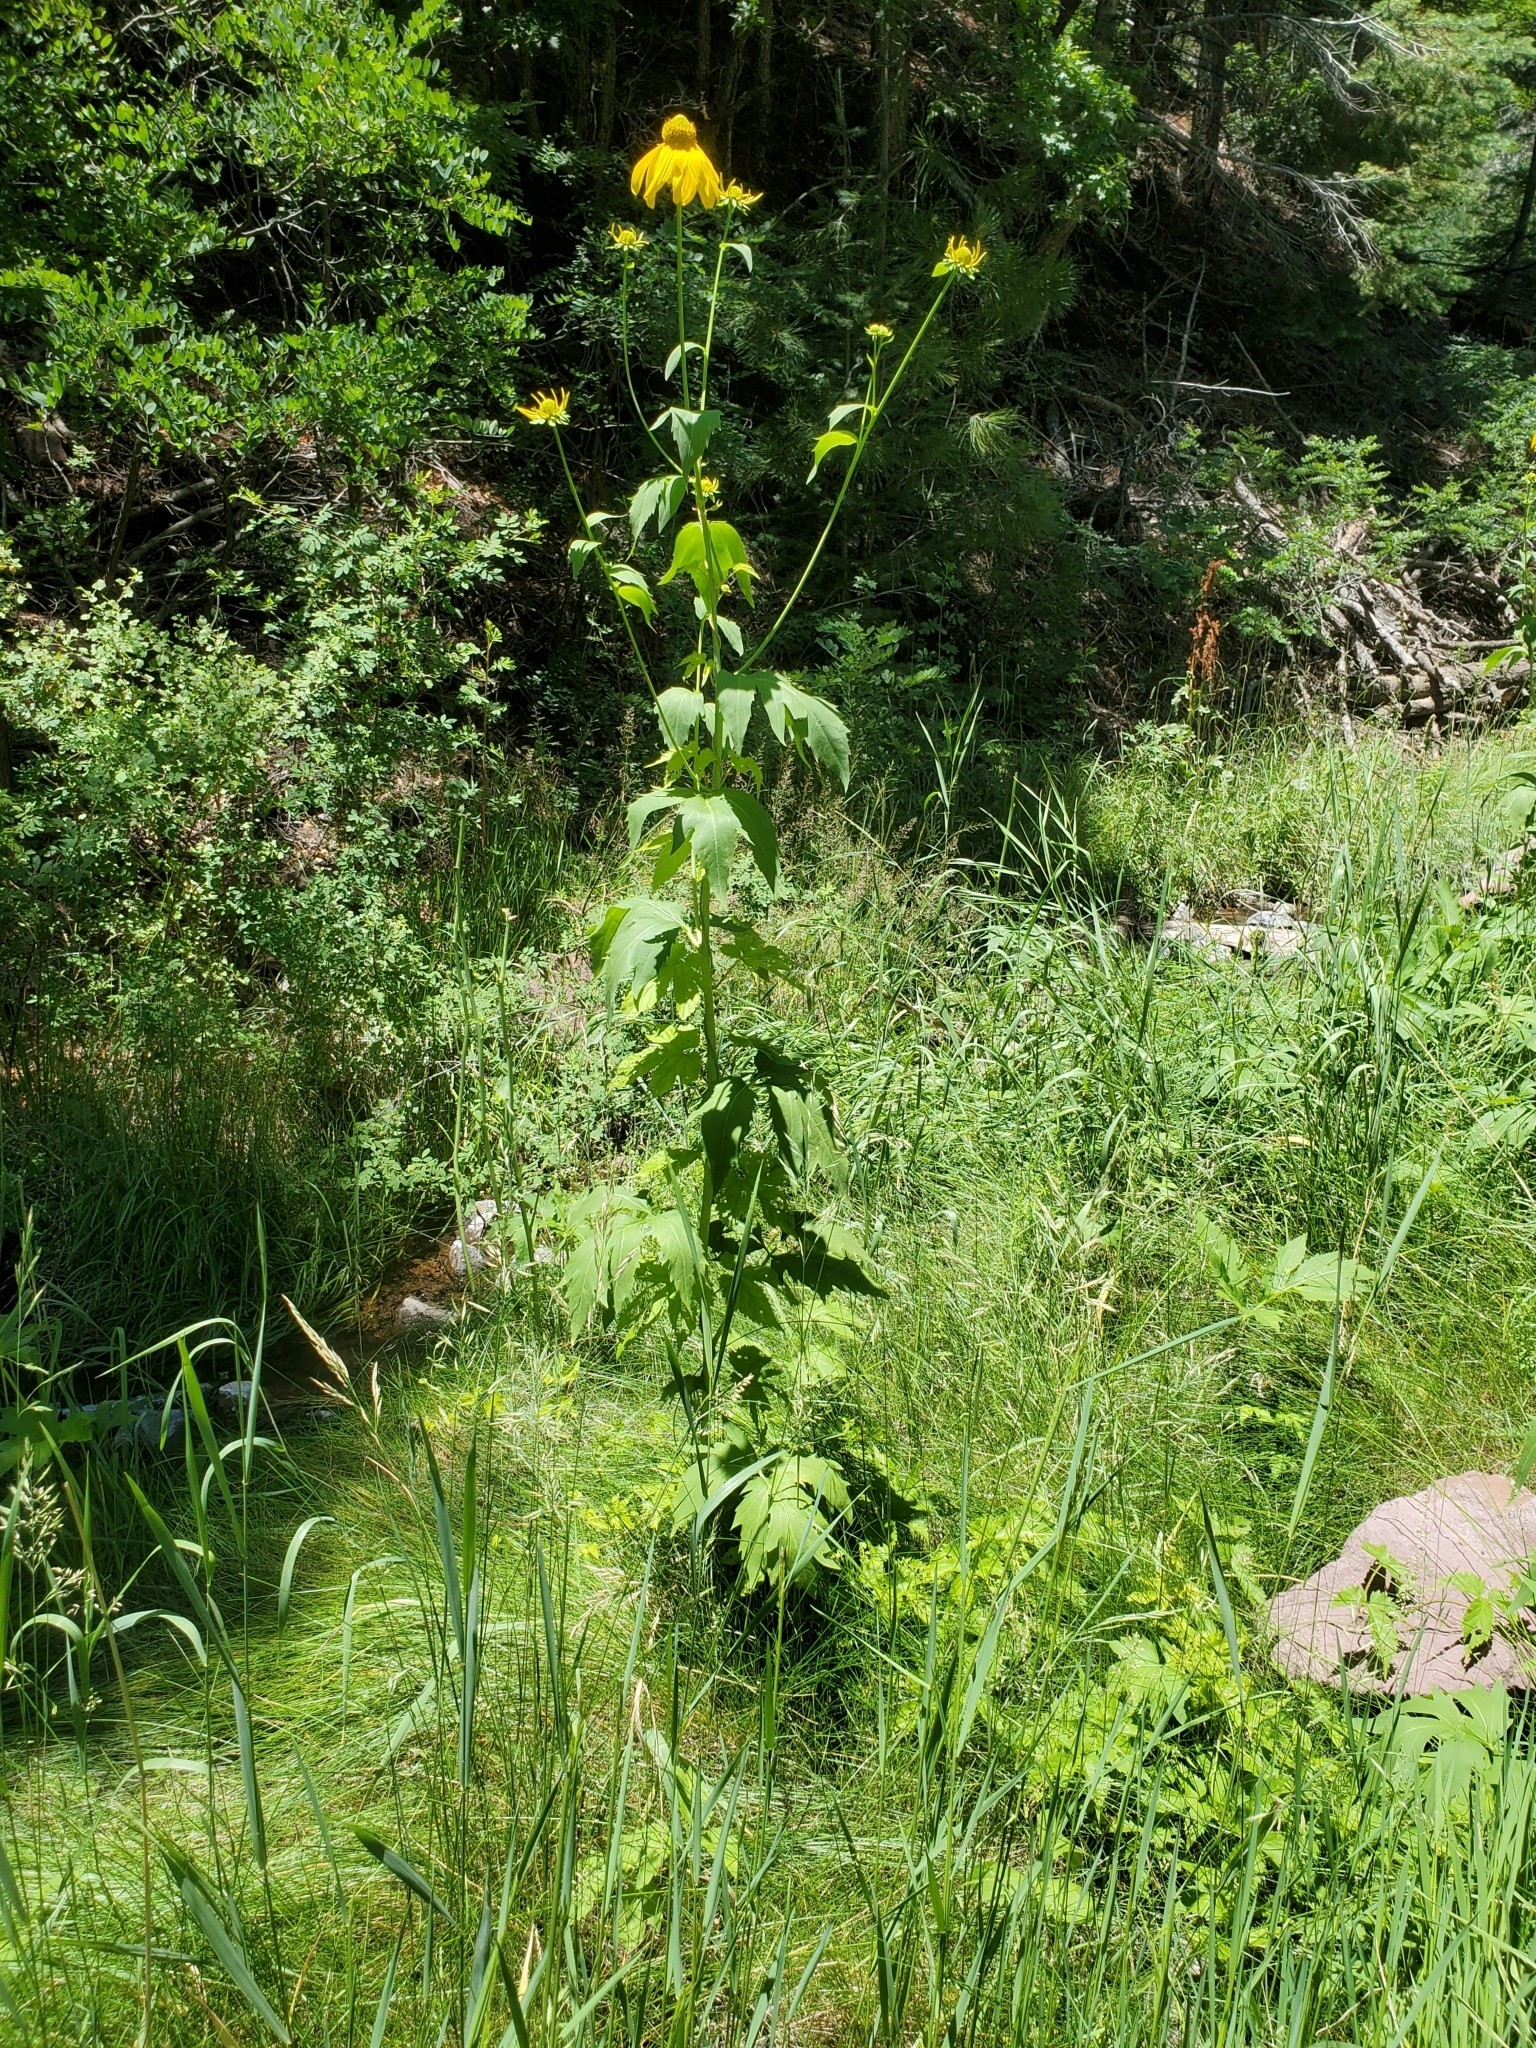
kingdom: Plantae
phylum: Tracheophyta
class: Magnoliopsida
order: Asterales
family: Asteraceae
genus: Rudbeckia
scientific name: Rudbeckia laciniata
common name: Coneflower
